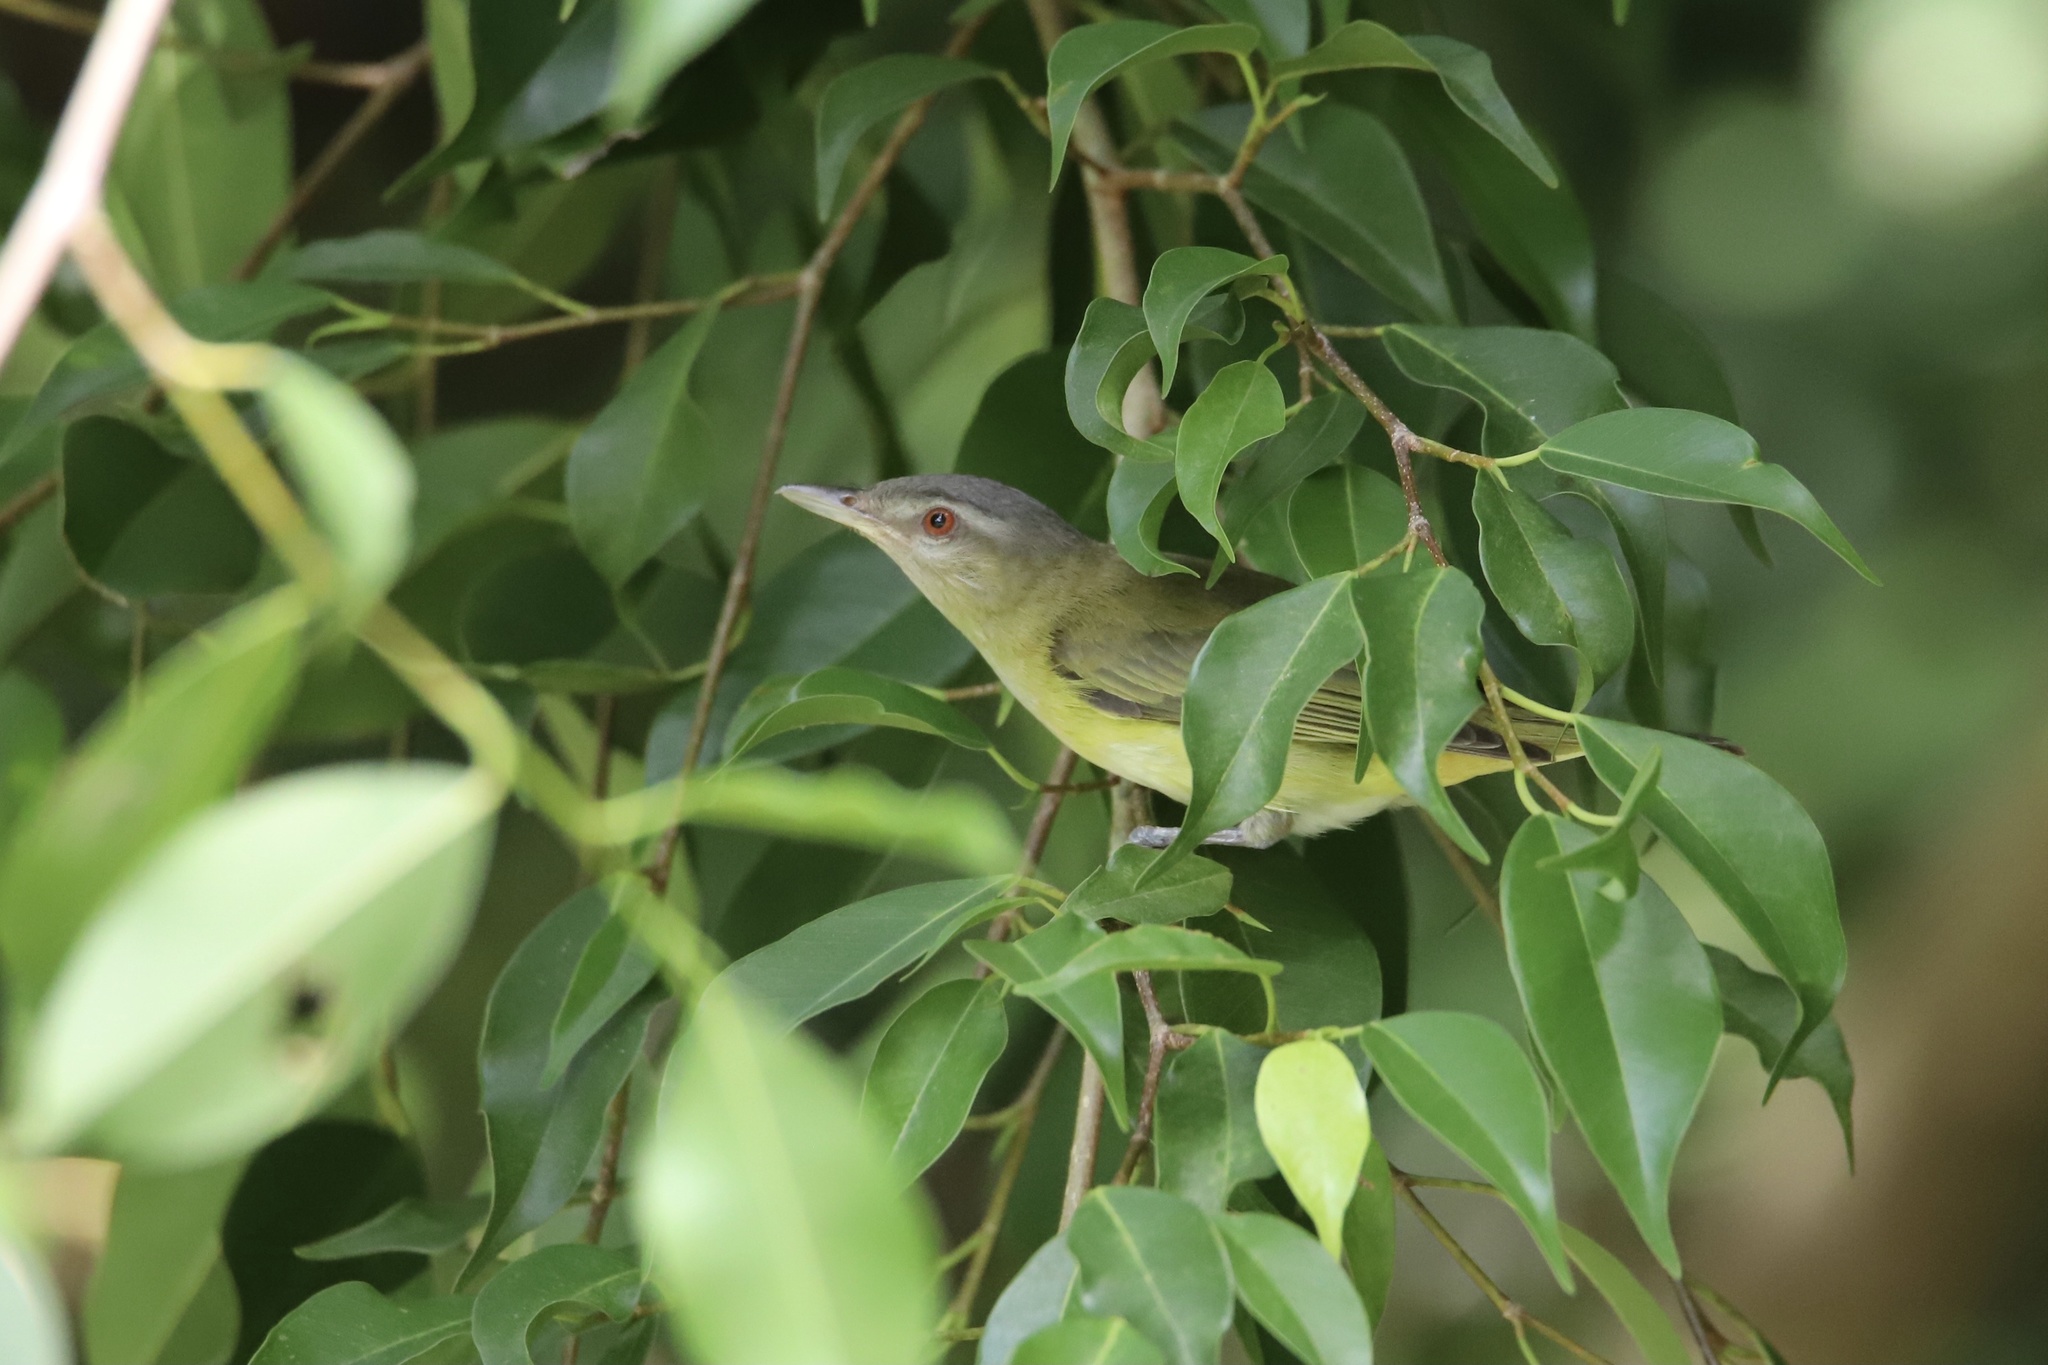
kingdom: Animalia
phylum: Chordata
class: Aves
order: Passeriformes
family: Vireonidae
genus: Vireo
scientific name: Vireo flavoviridis
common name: Yellow-green vireo
